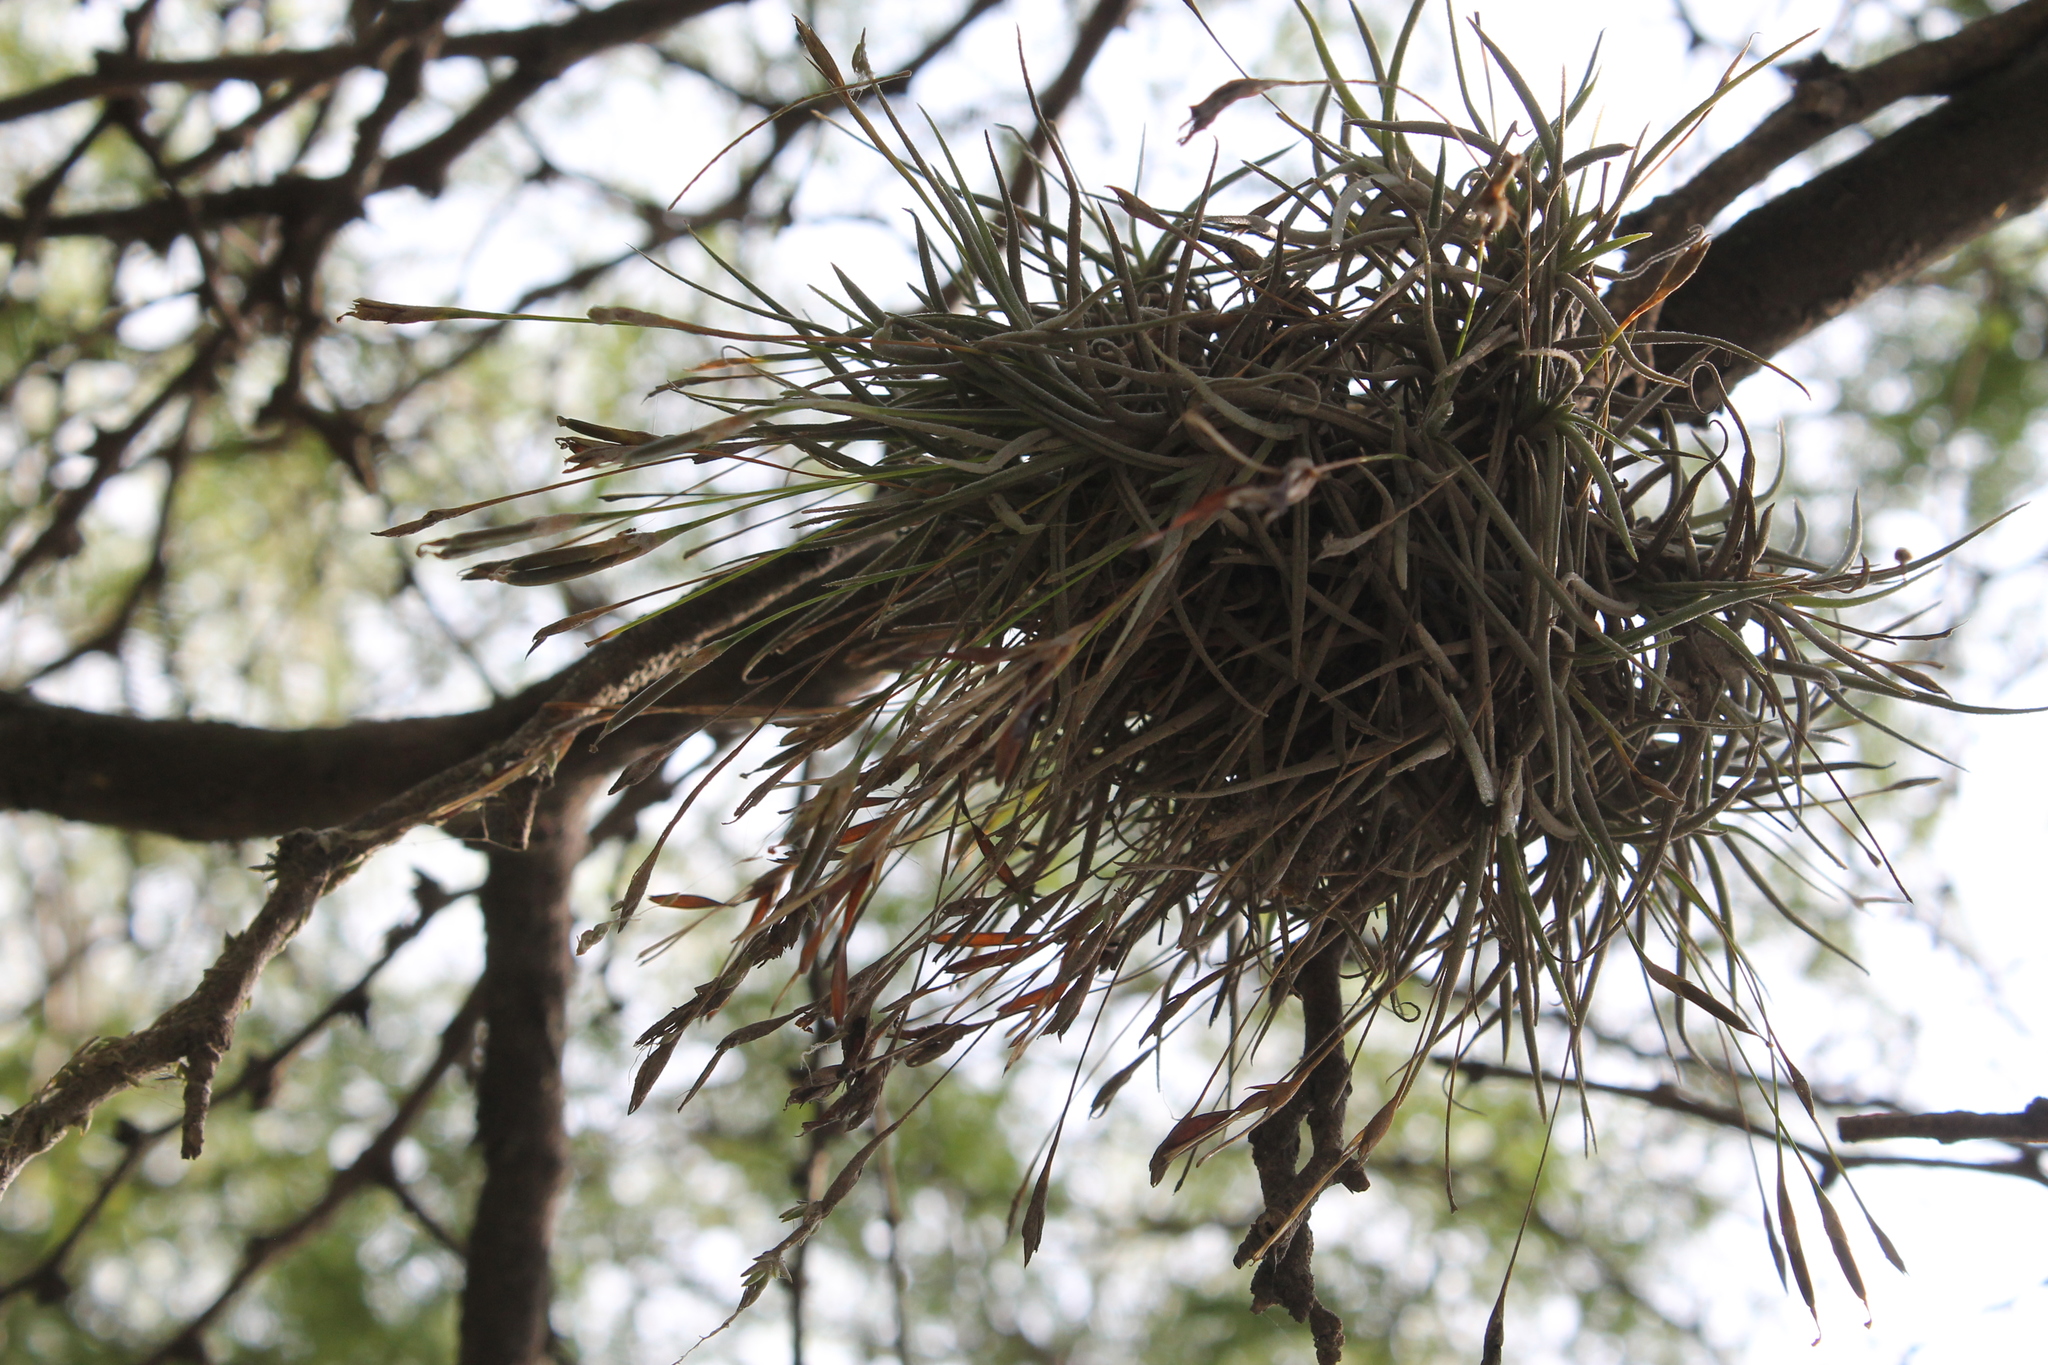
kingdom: Plantae
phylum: Tracheophyta
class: Liliopsida
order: Poales
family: Bromeliaceae
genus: Tillandsia
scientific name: Tillandsia recurvata
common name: Small ballmoss
